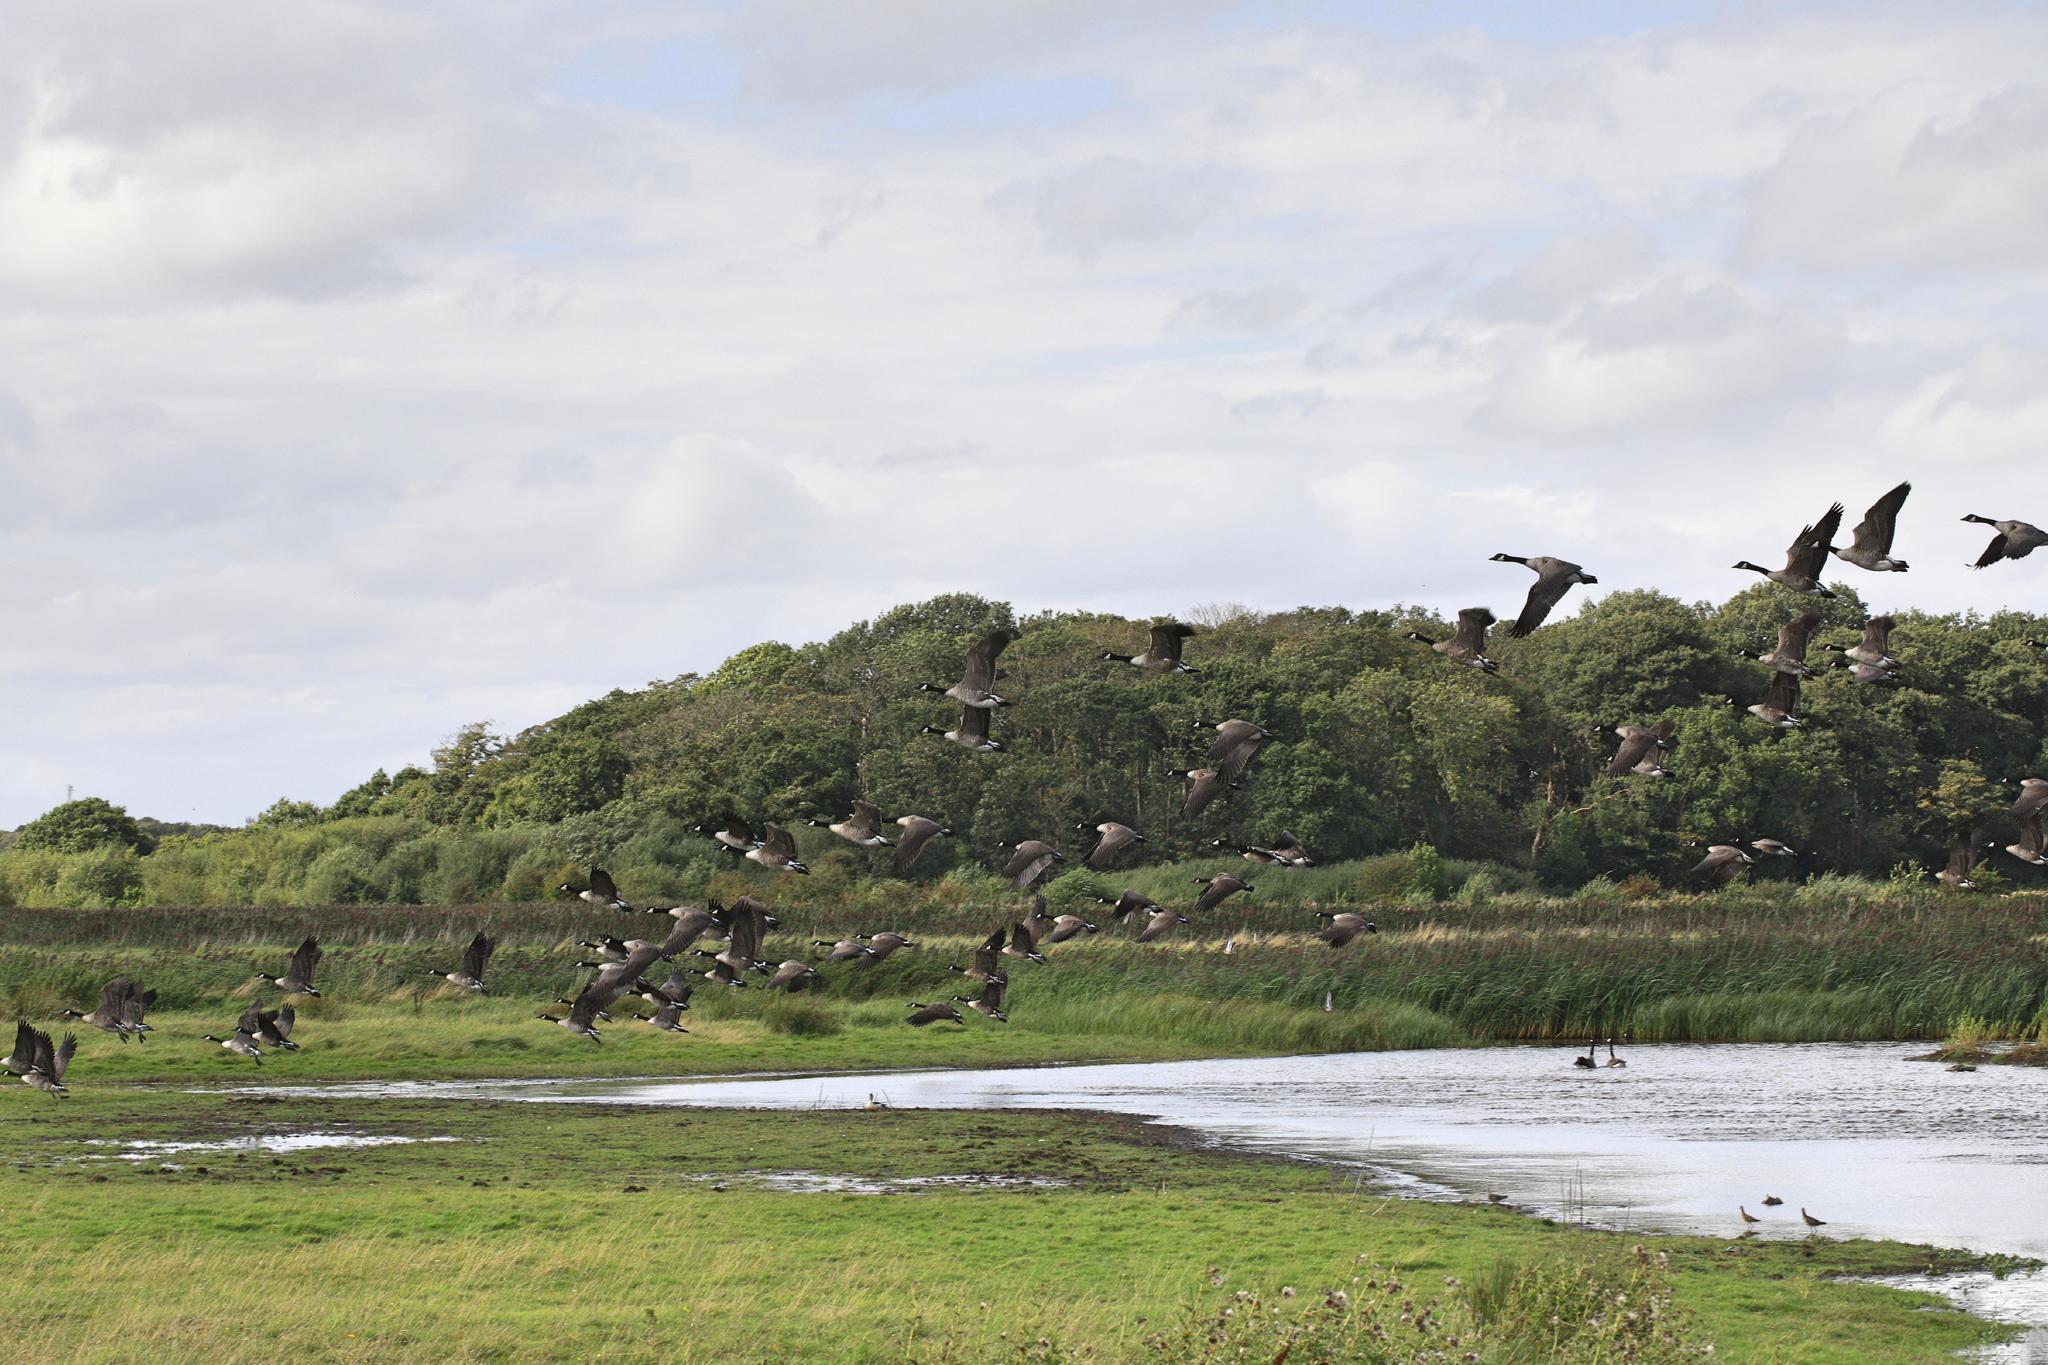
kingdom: Animalia
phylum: Chordata
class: Aves
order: Anseriformes
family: Anatidae
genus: Branta
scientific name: Branta canadensis
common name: Canada goose
